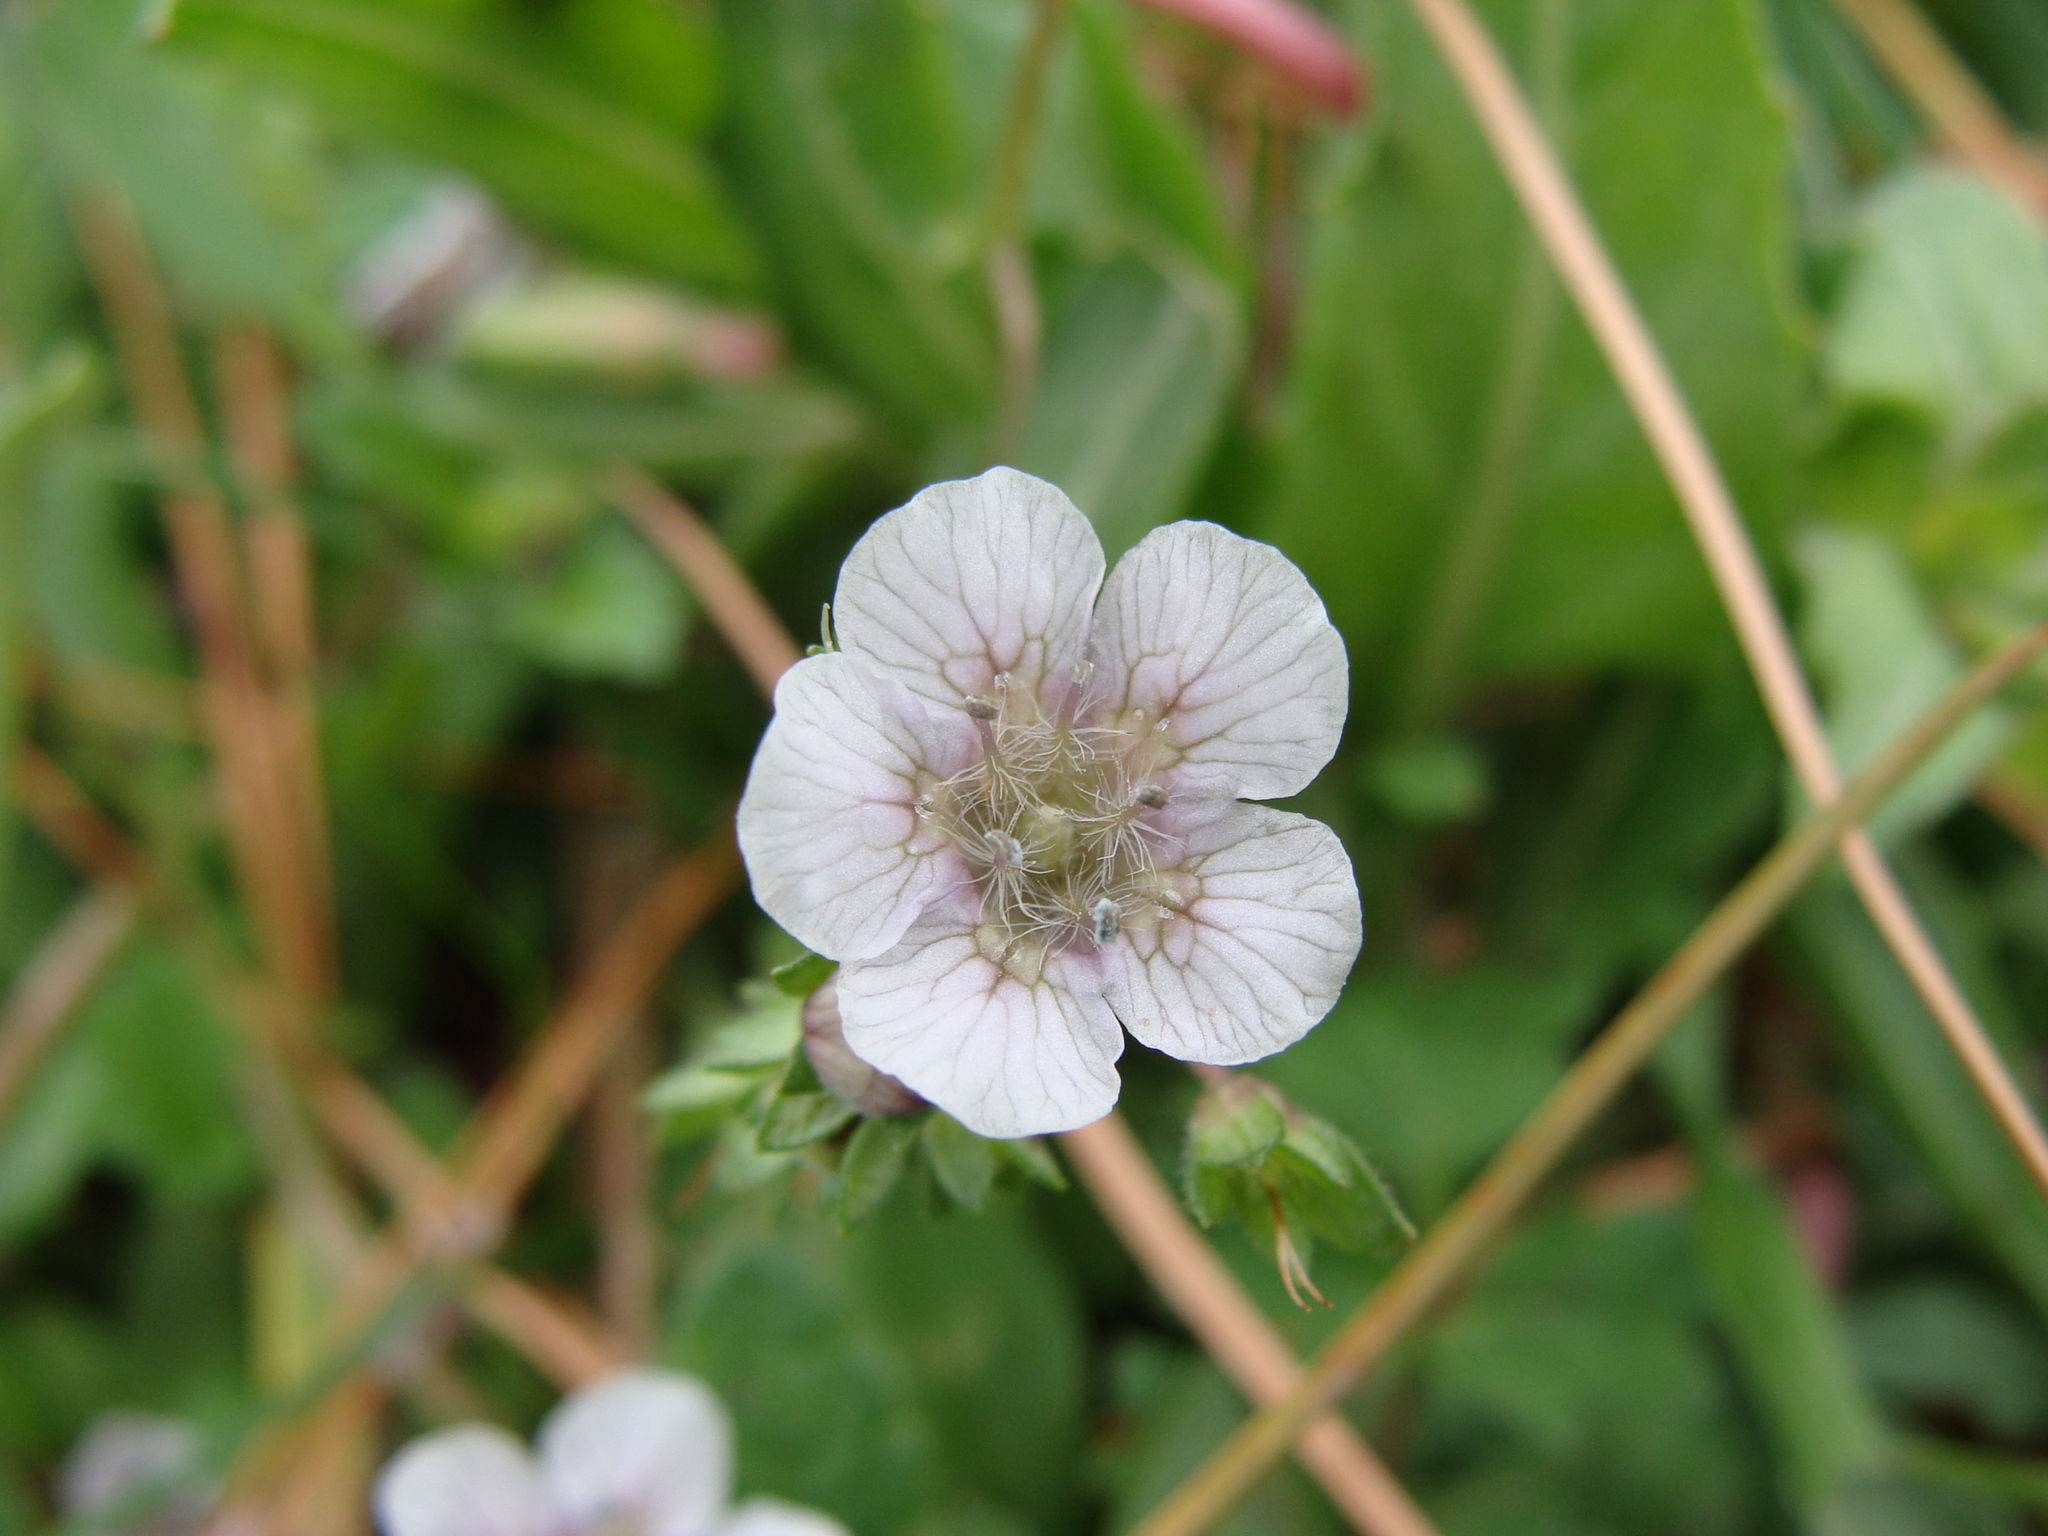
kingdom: Plantae
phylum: Tracheophyta
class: Magnoliopsida
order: Boraginales
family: Hydrophyllaceae
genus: Phacelia
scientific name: Phacelia platycarpa
